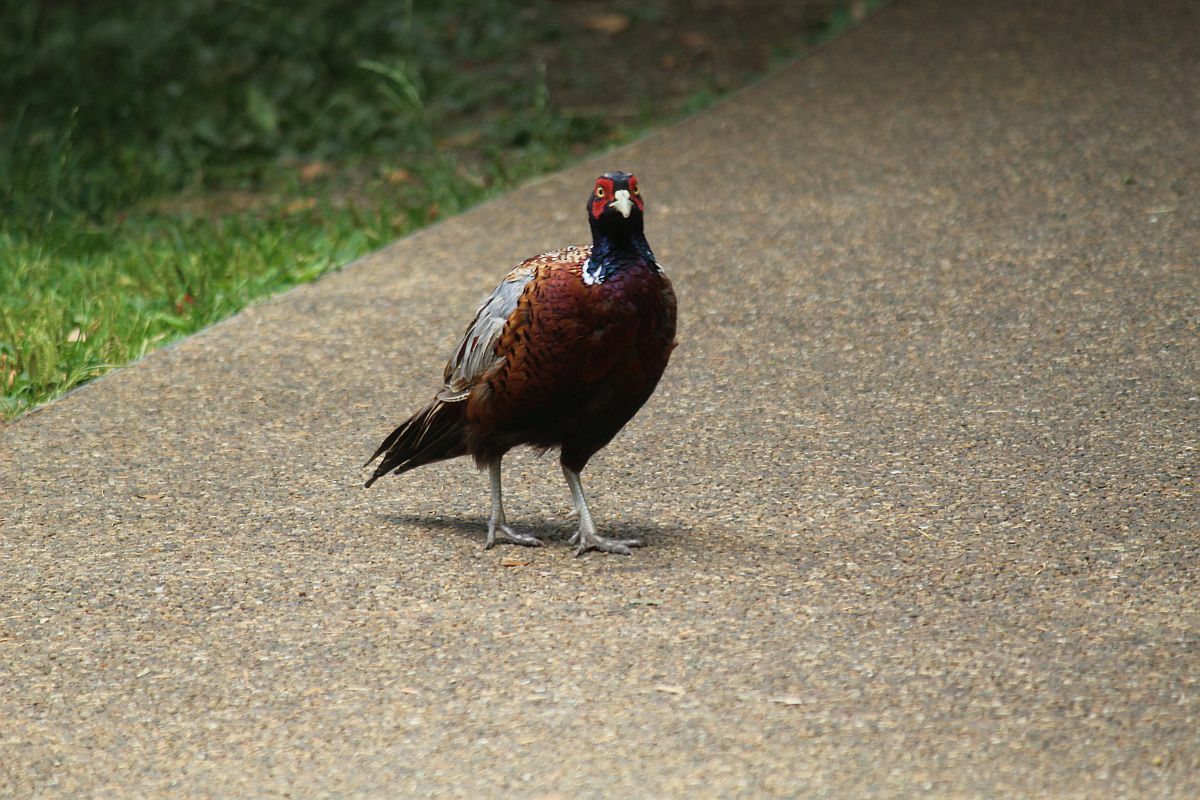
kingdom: Animalia
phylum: Chordata
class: Aves
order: Galliformes
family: Phasianidae
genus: Phasianus
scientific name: Phasianus colchicus
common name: Common pheasant
